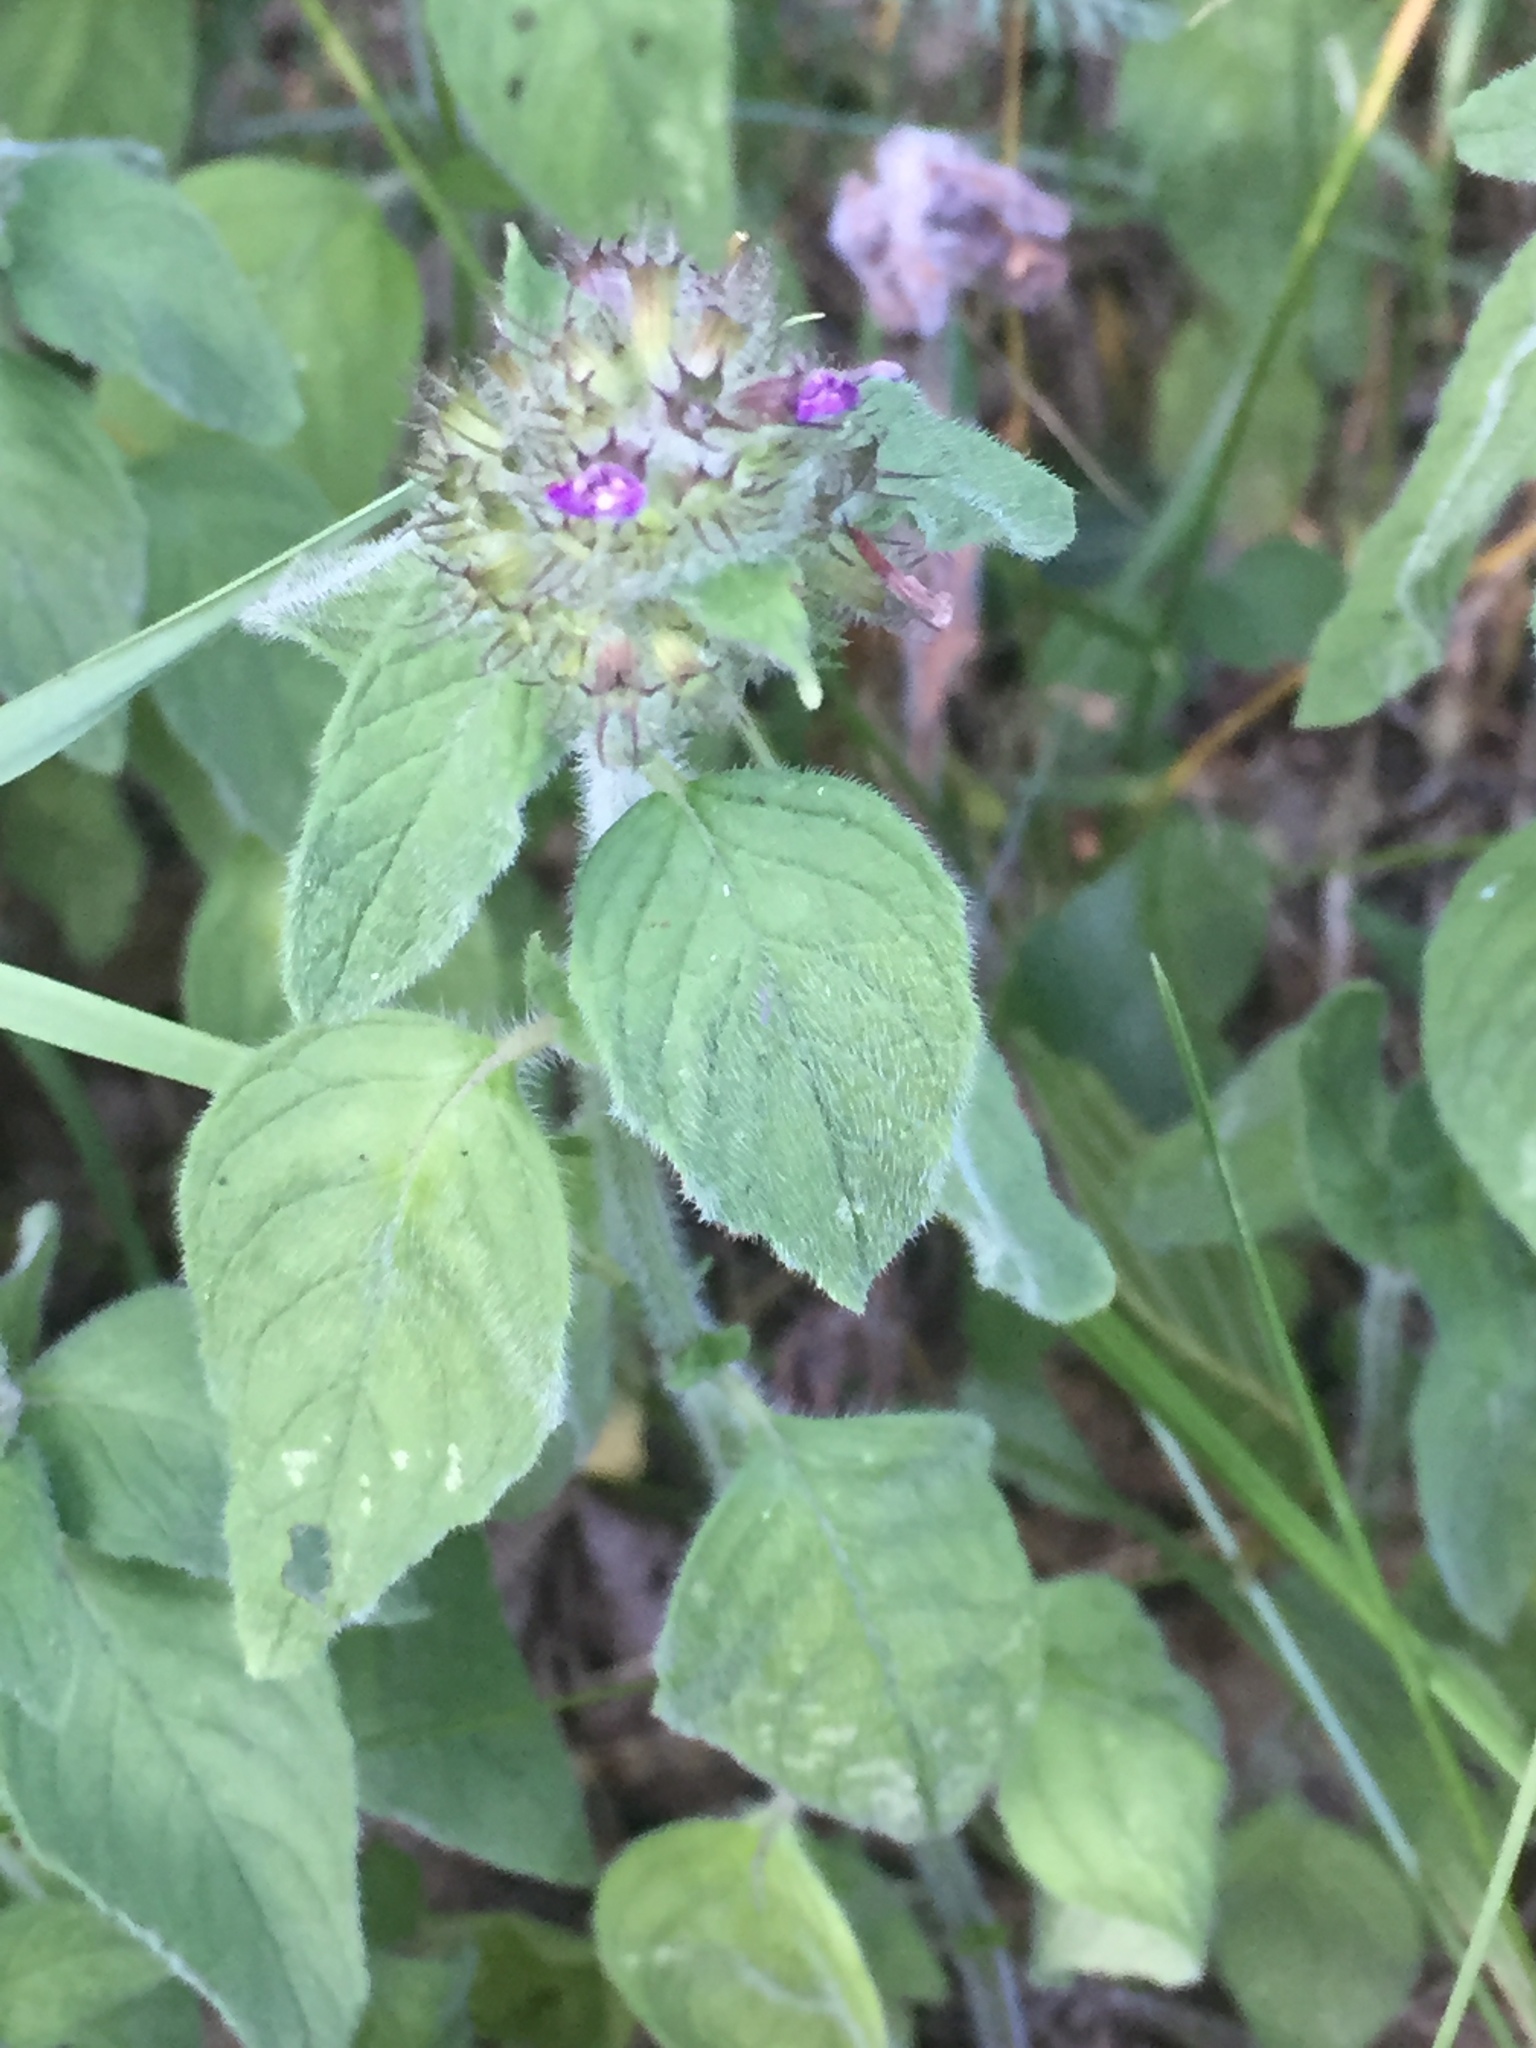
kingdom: Plantae
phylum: Tracheophyta
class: Magnoliopsida
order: Lamiales
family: Lamiaceae
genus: Clinopodium
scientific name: Clinopodium vulgare
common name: Wild basil
